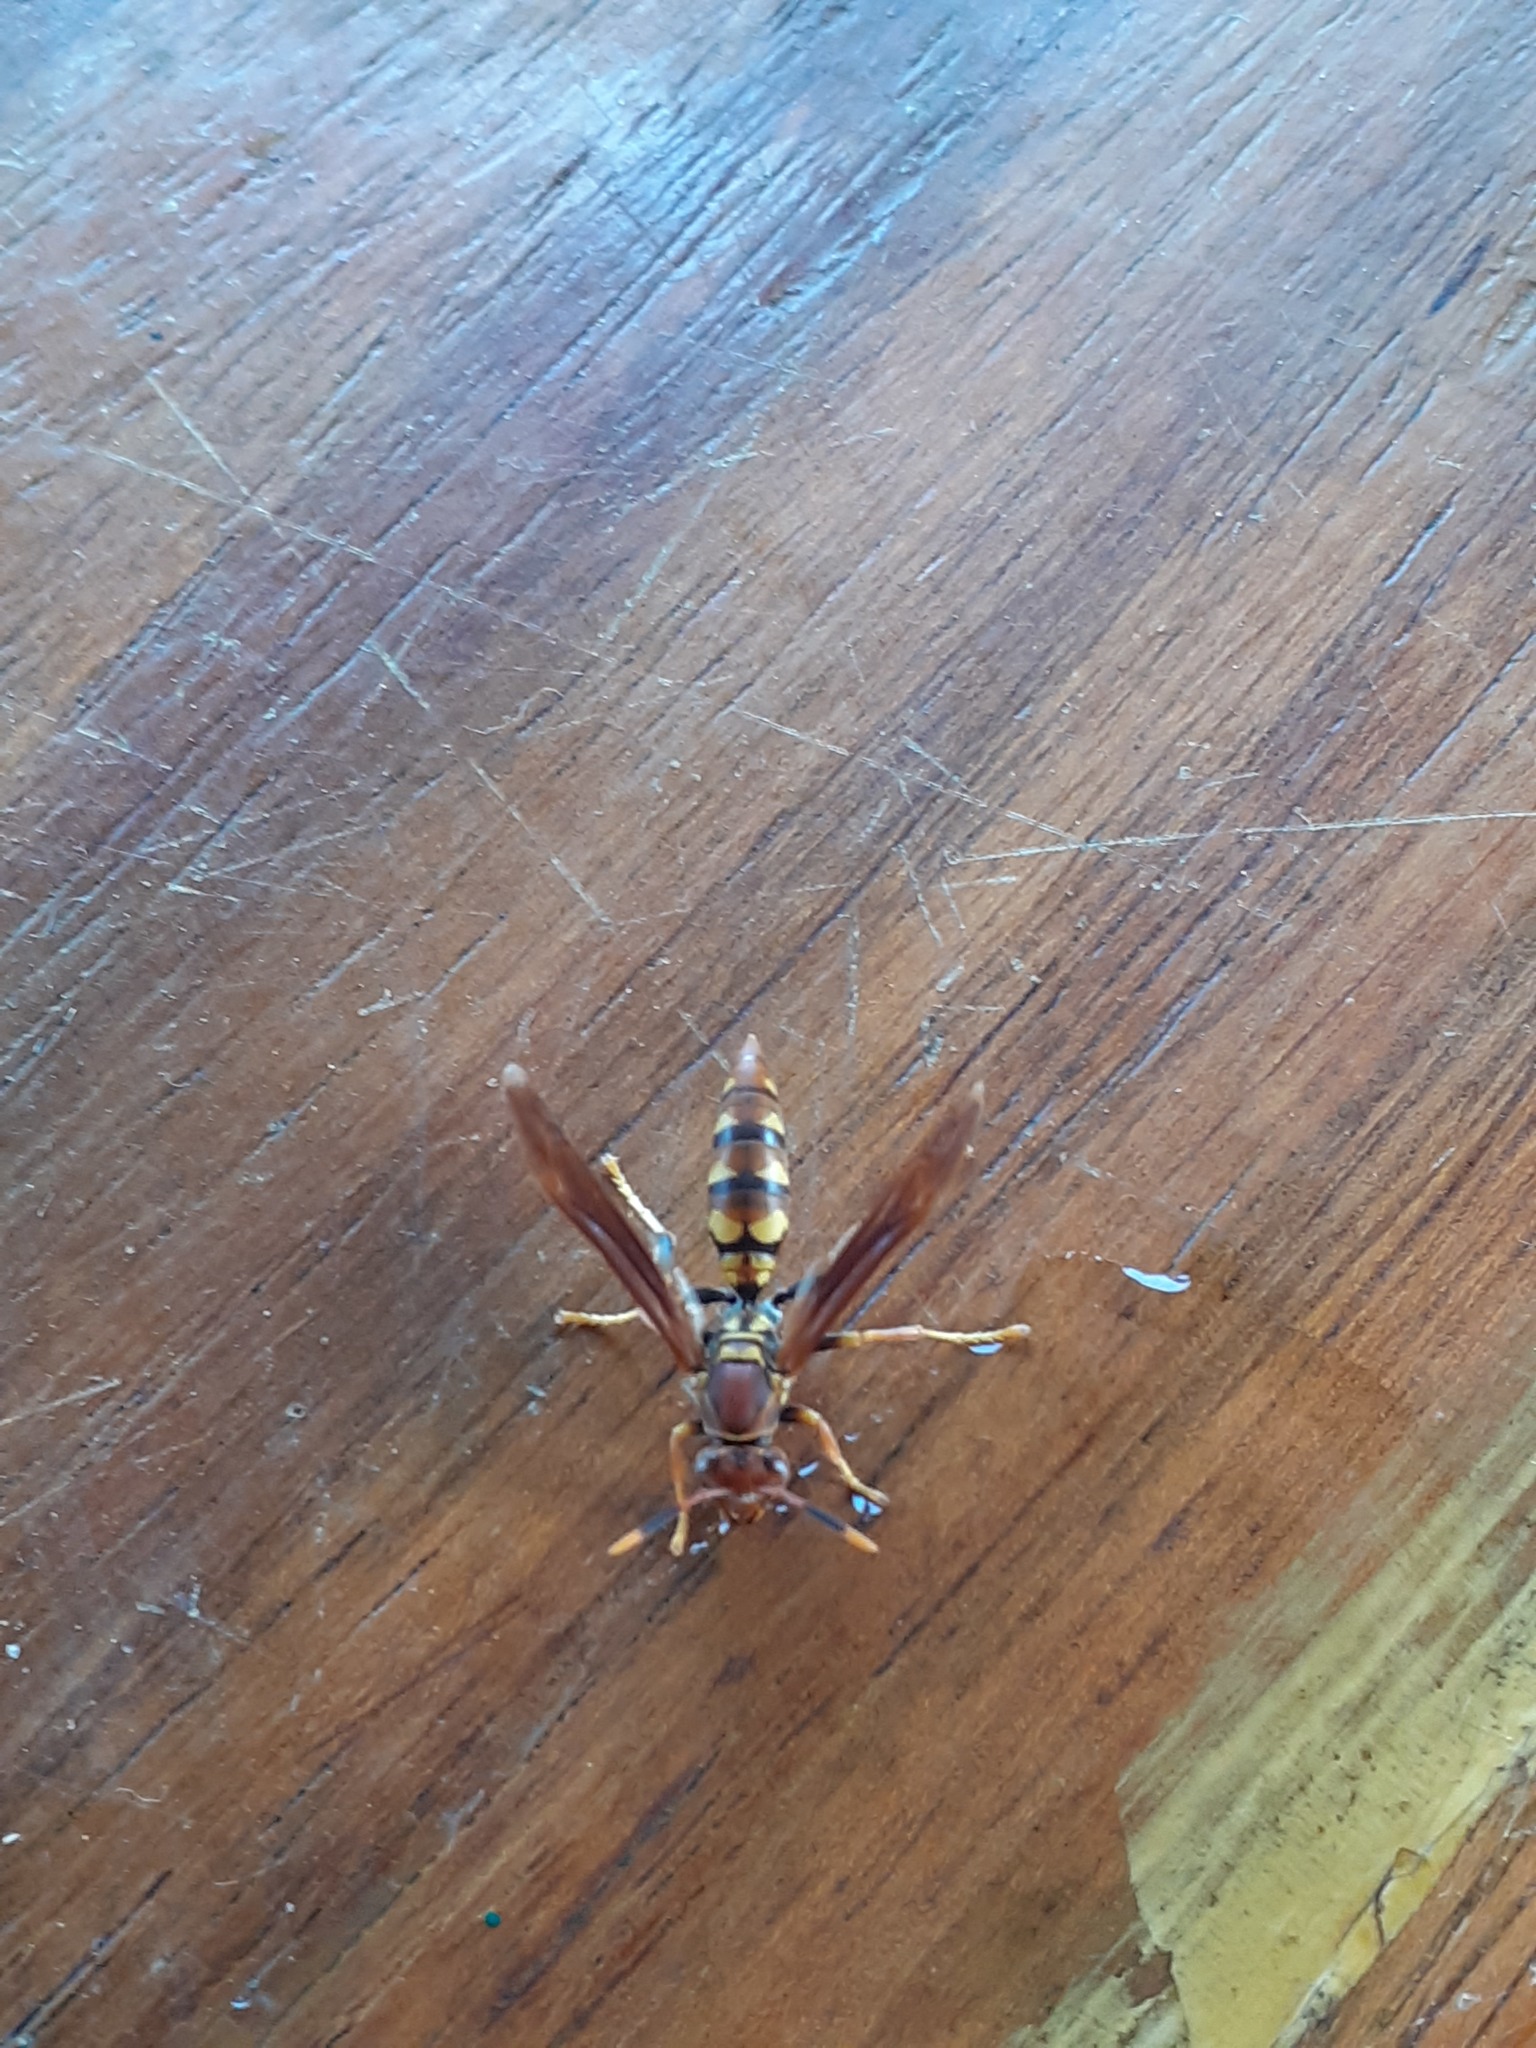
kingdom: Animalia
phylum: Arthropoda
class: Insecta
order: Hymenoptera
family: Eumenidae
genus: Polistes
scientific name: Polistes versicolor
